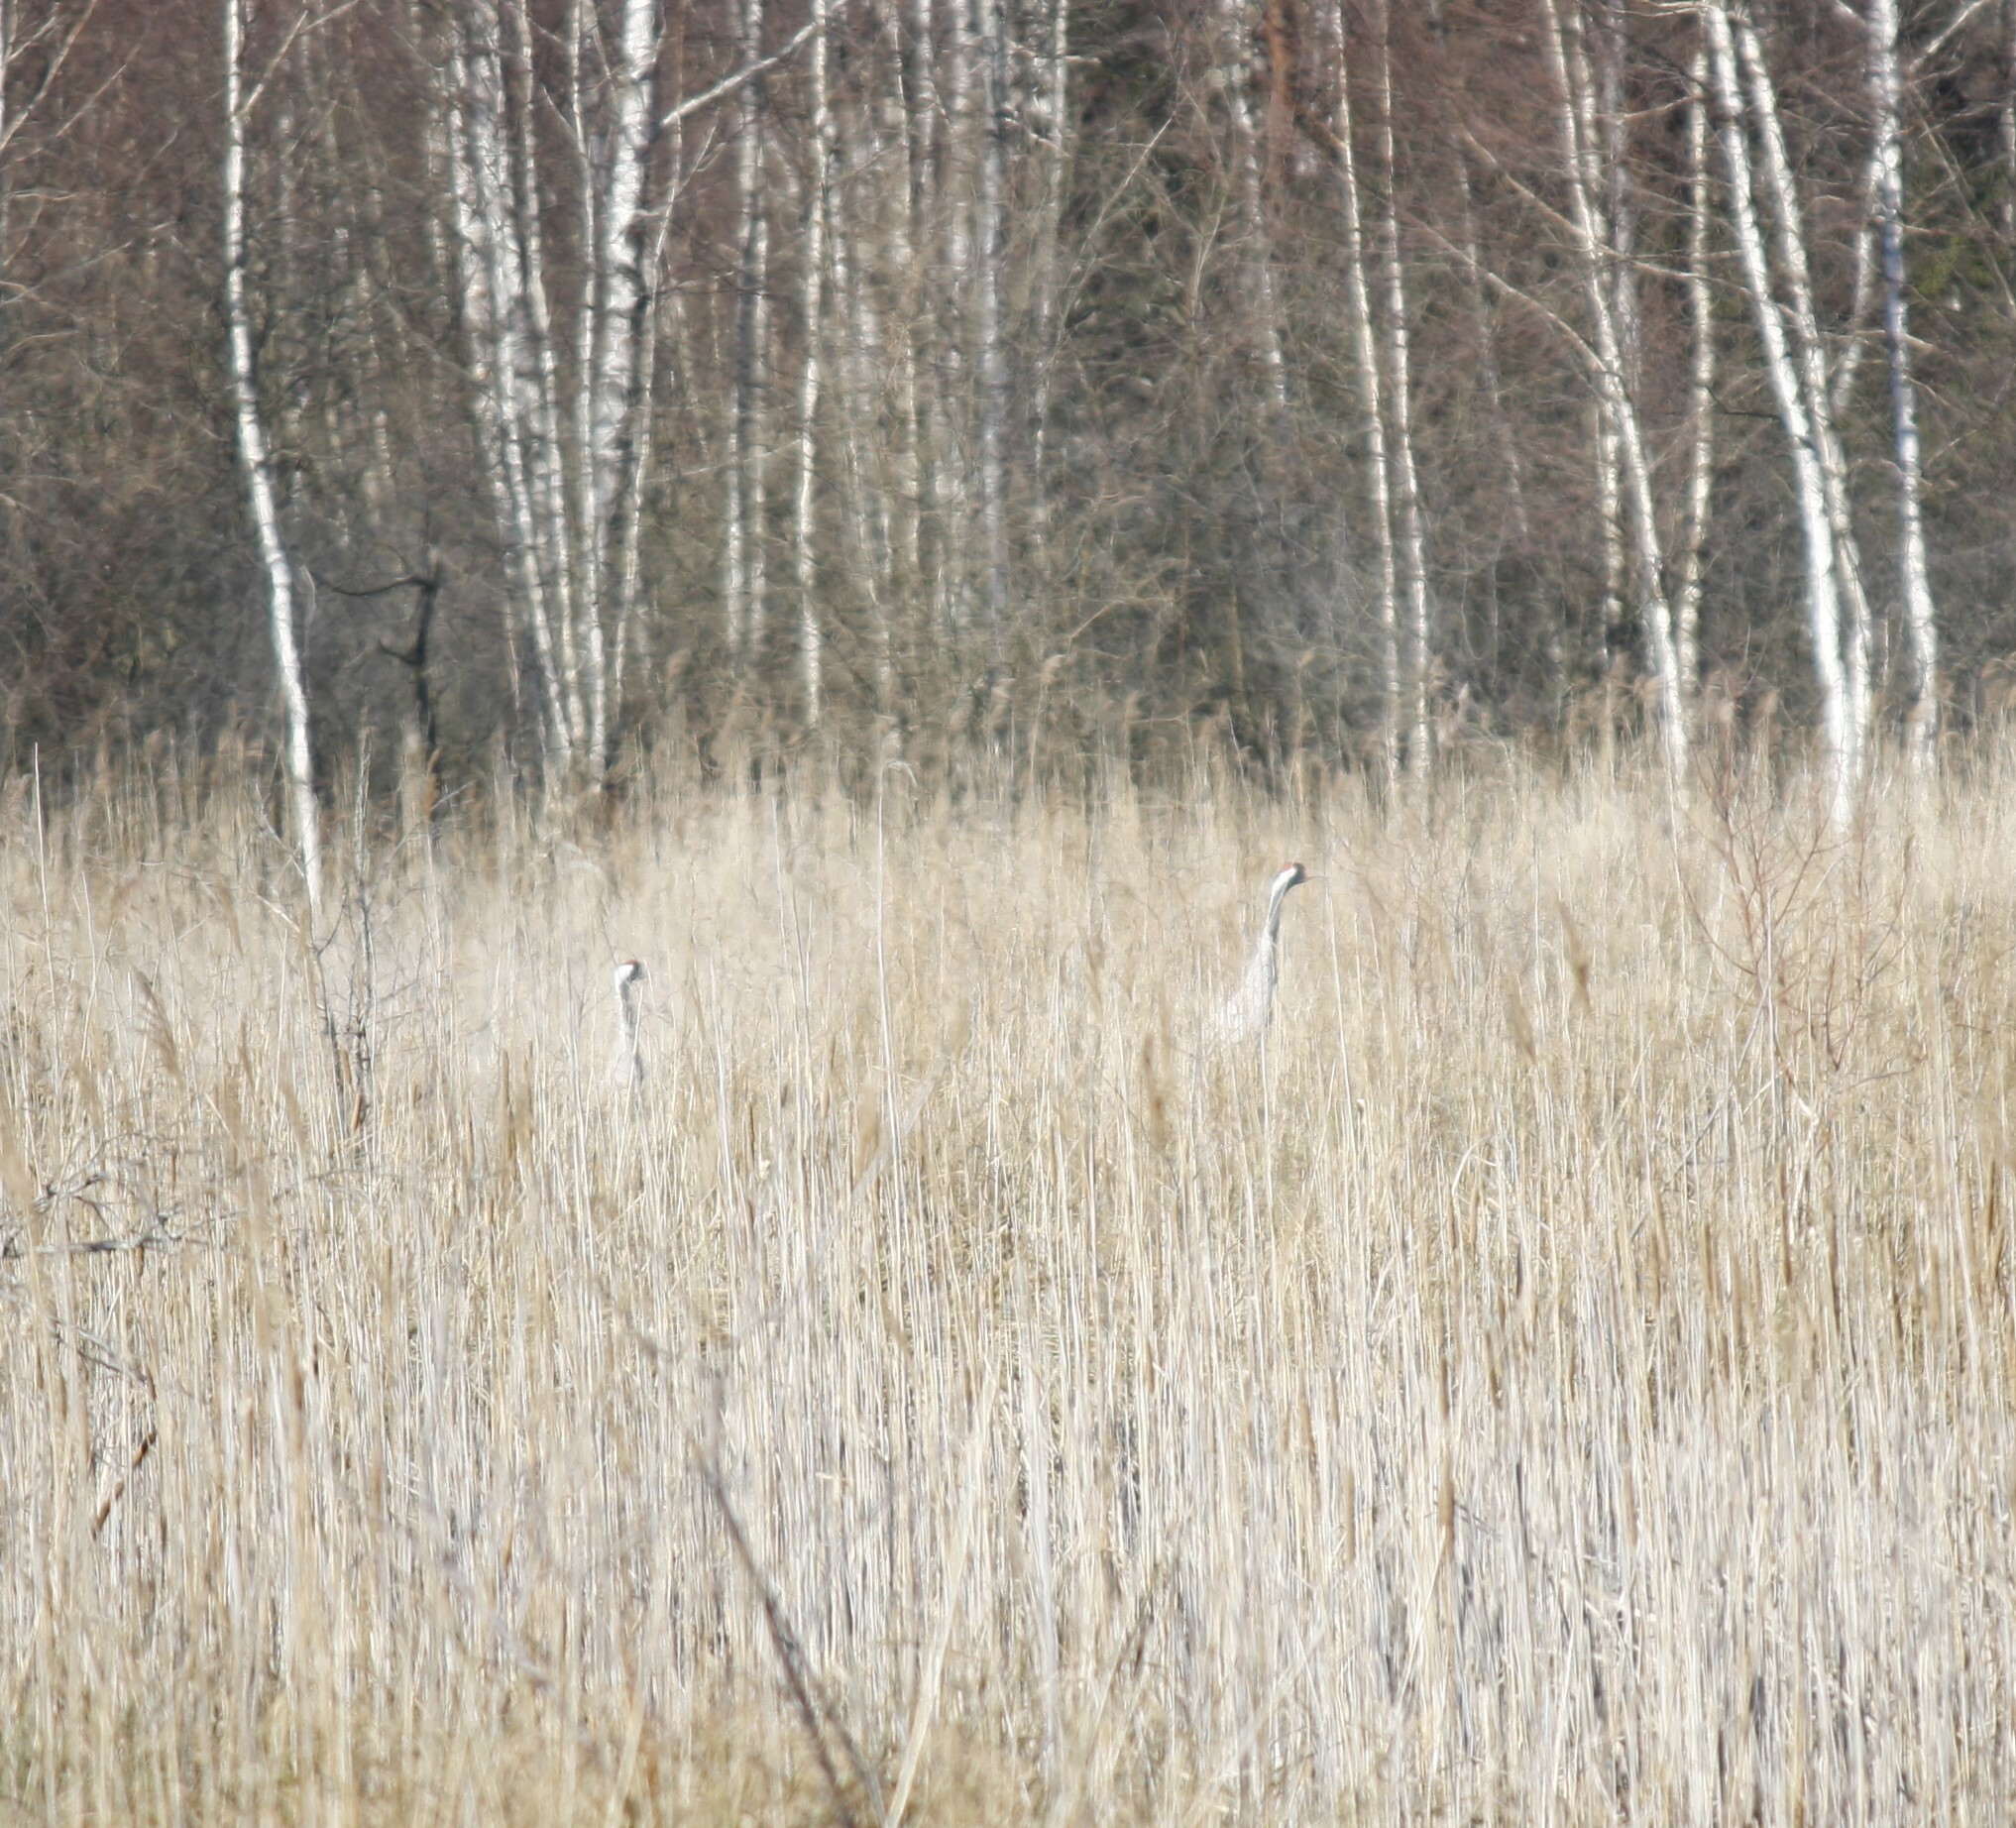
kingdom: Animalia
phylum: Chordata
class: Aves
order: Gruiformes
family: Gruidae
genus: Grus
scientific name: Grus grus
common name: Common crane
